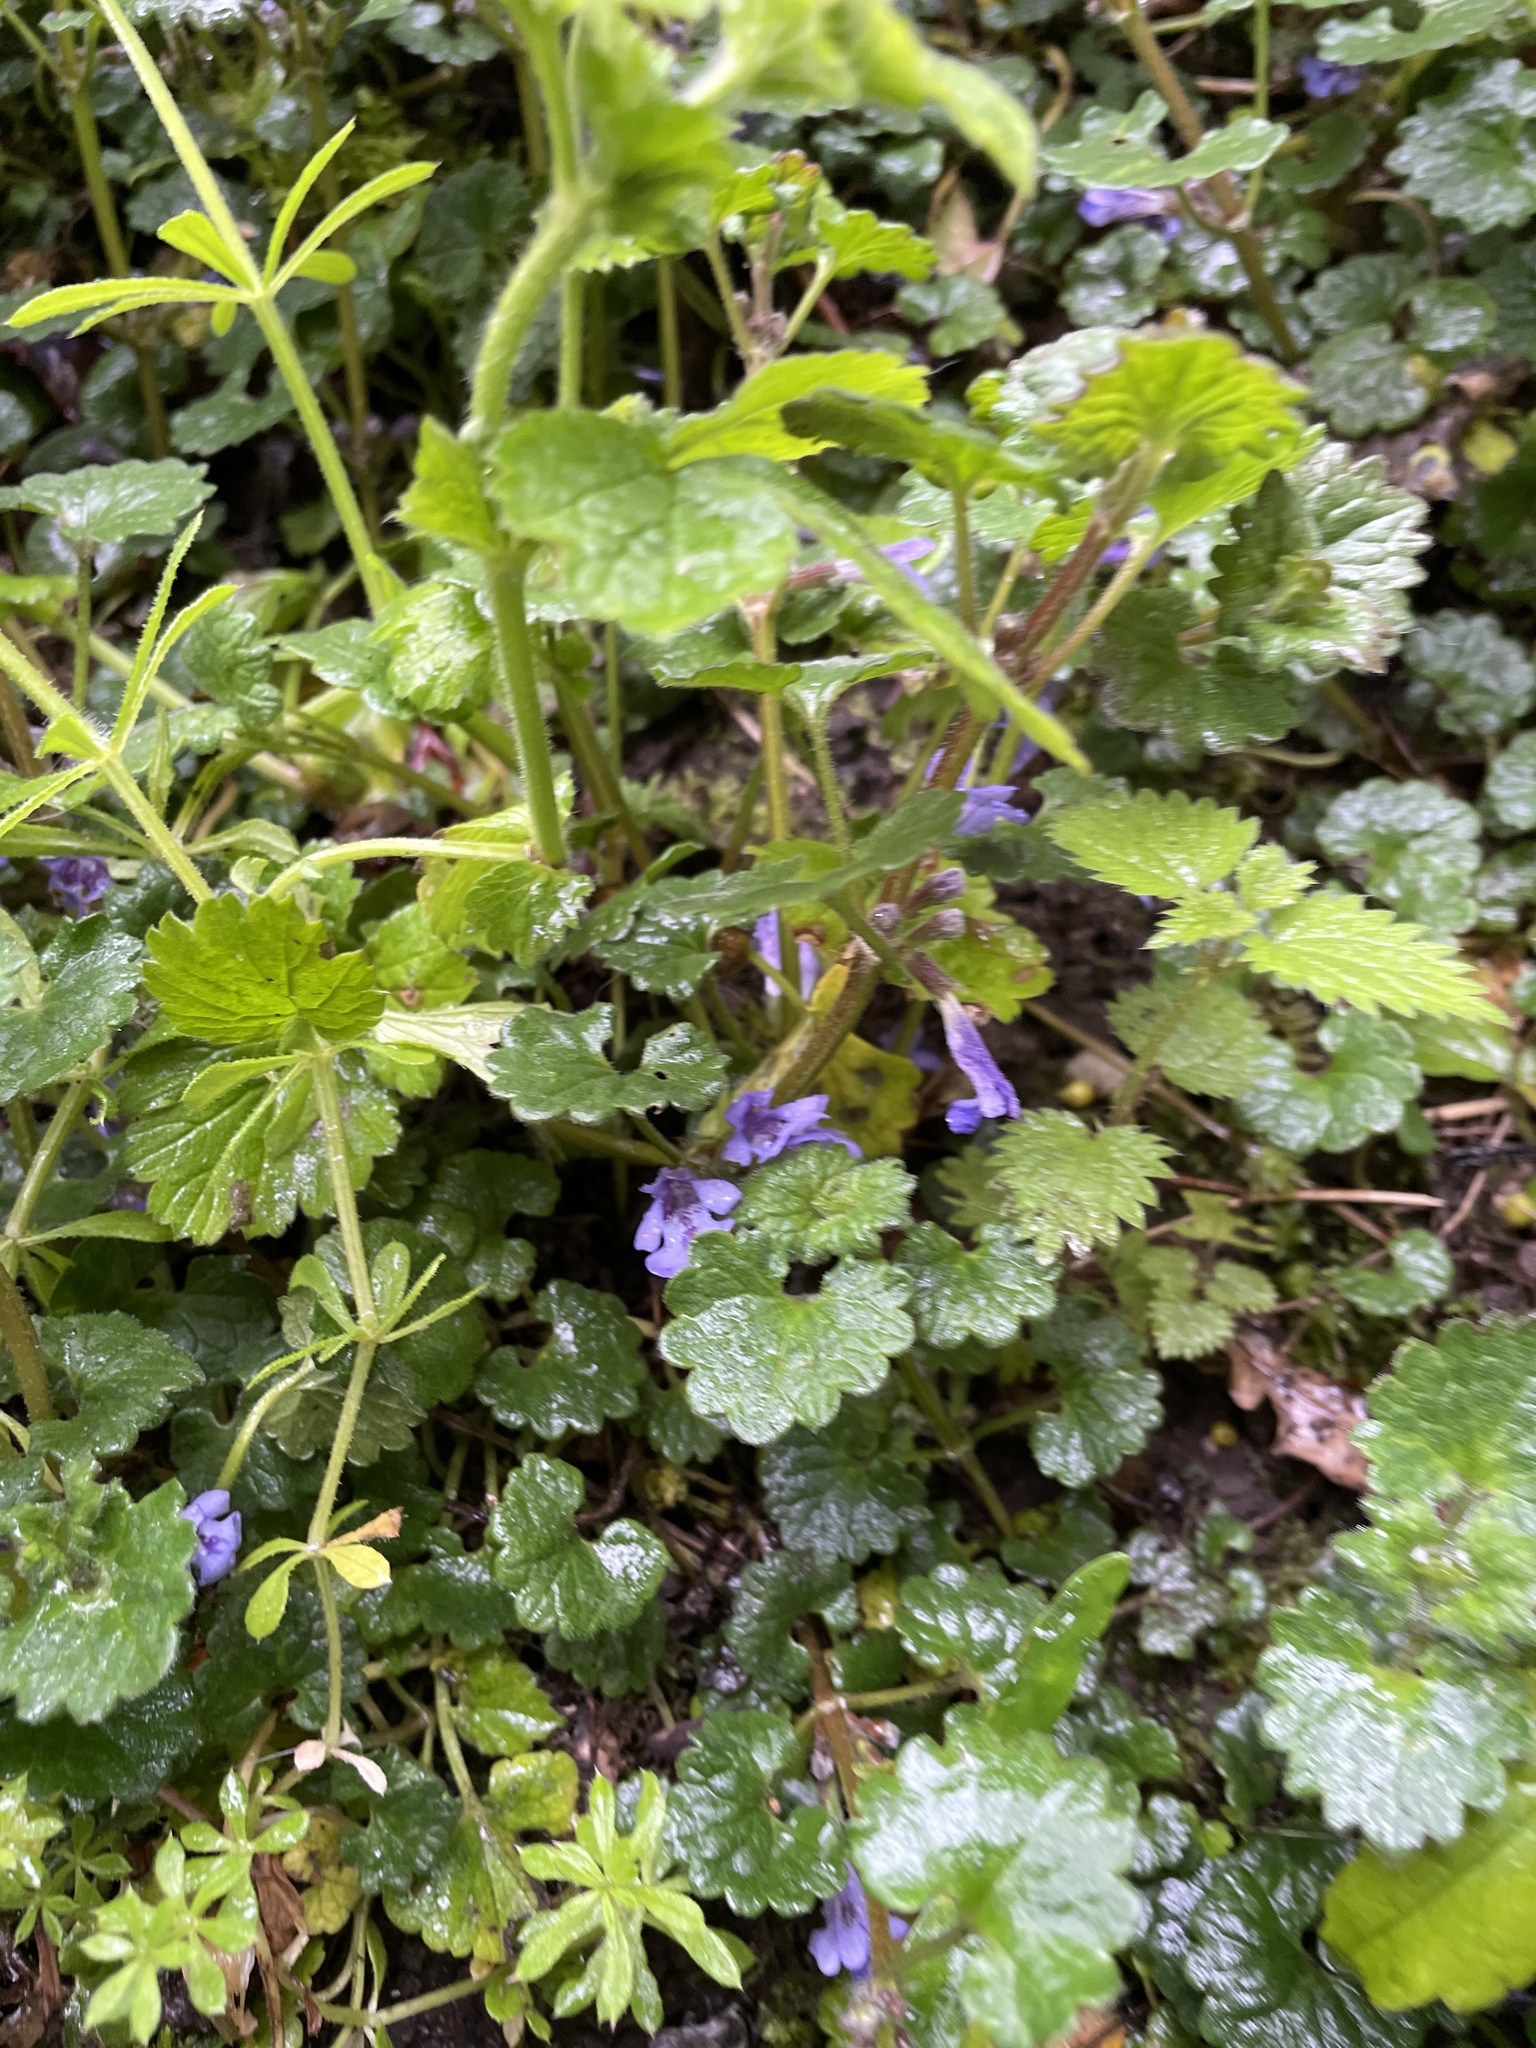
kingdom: Plantae
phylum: Tracheophyta
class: Magnoliopsida
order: Lamiales
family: Lamiaceae
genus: Glechoma
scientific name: Glechoma hederacea
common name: Ground ivy
